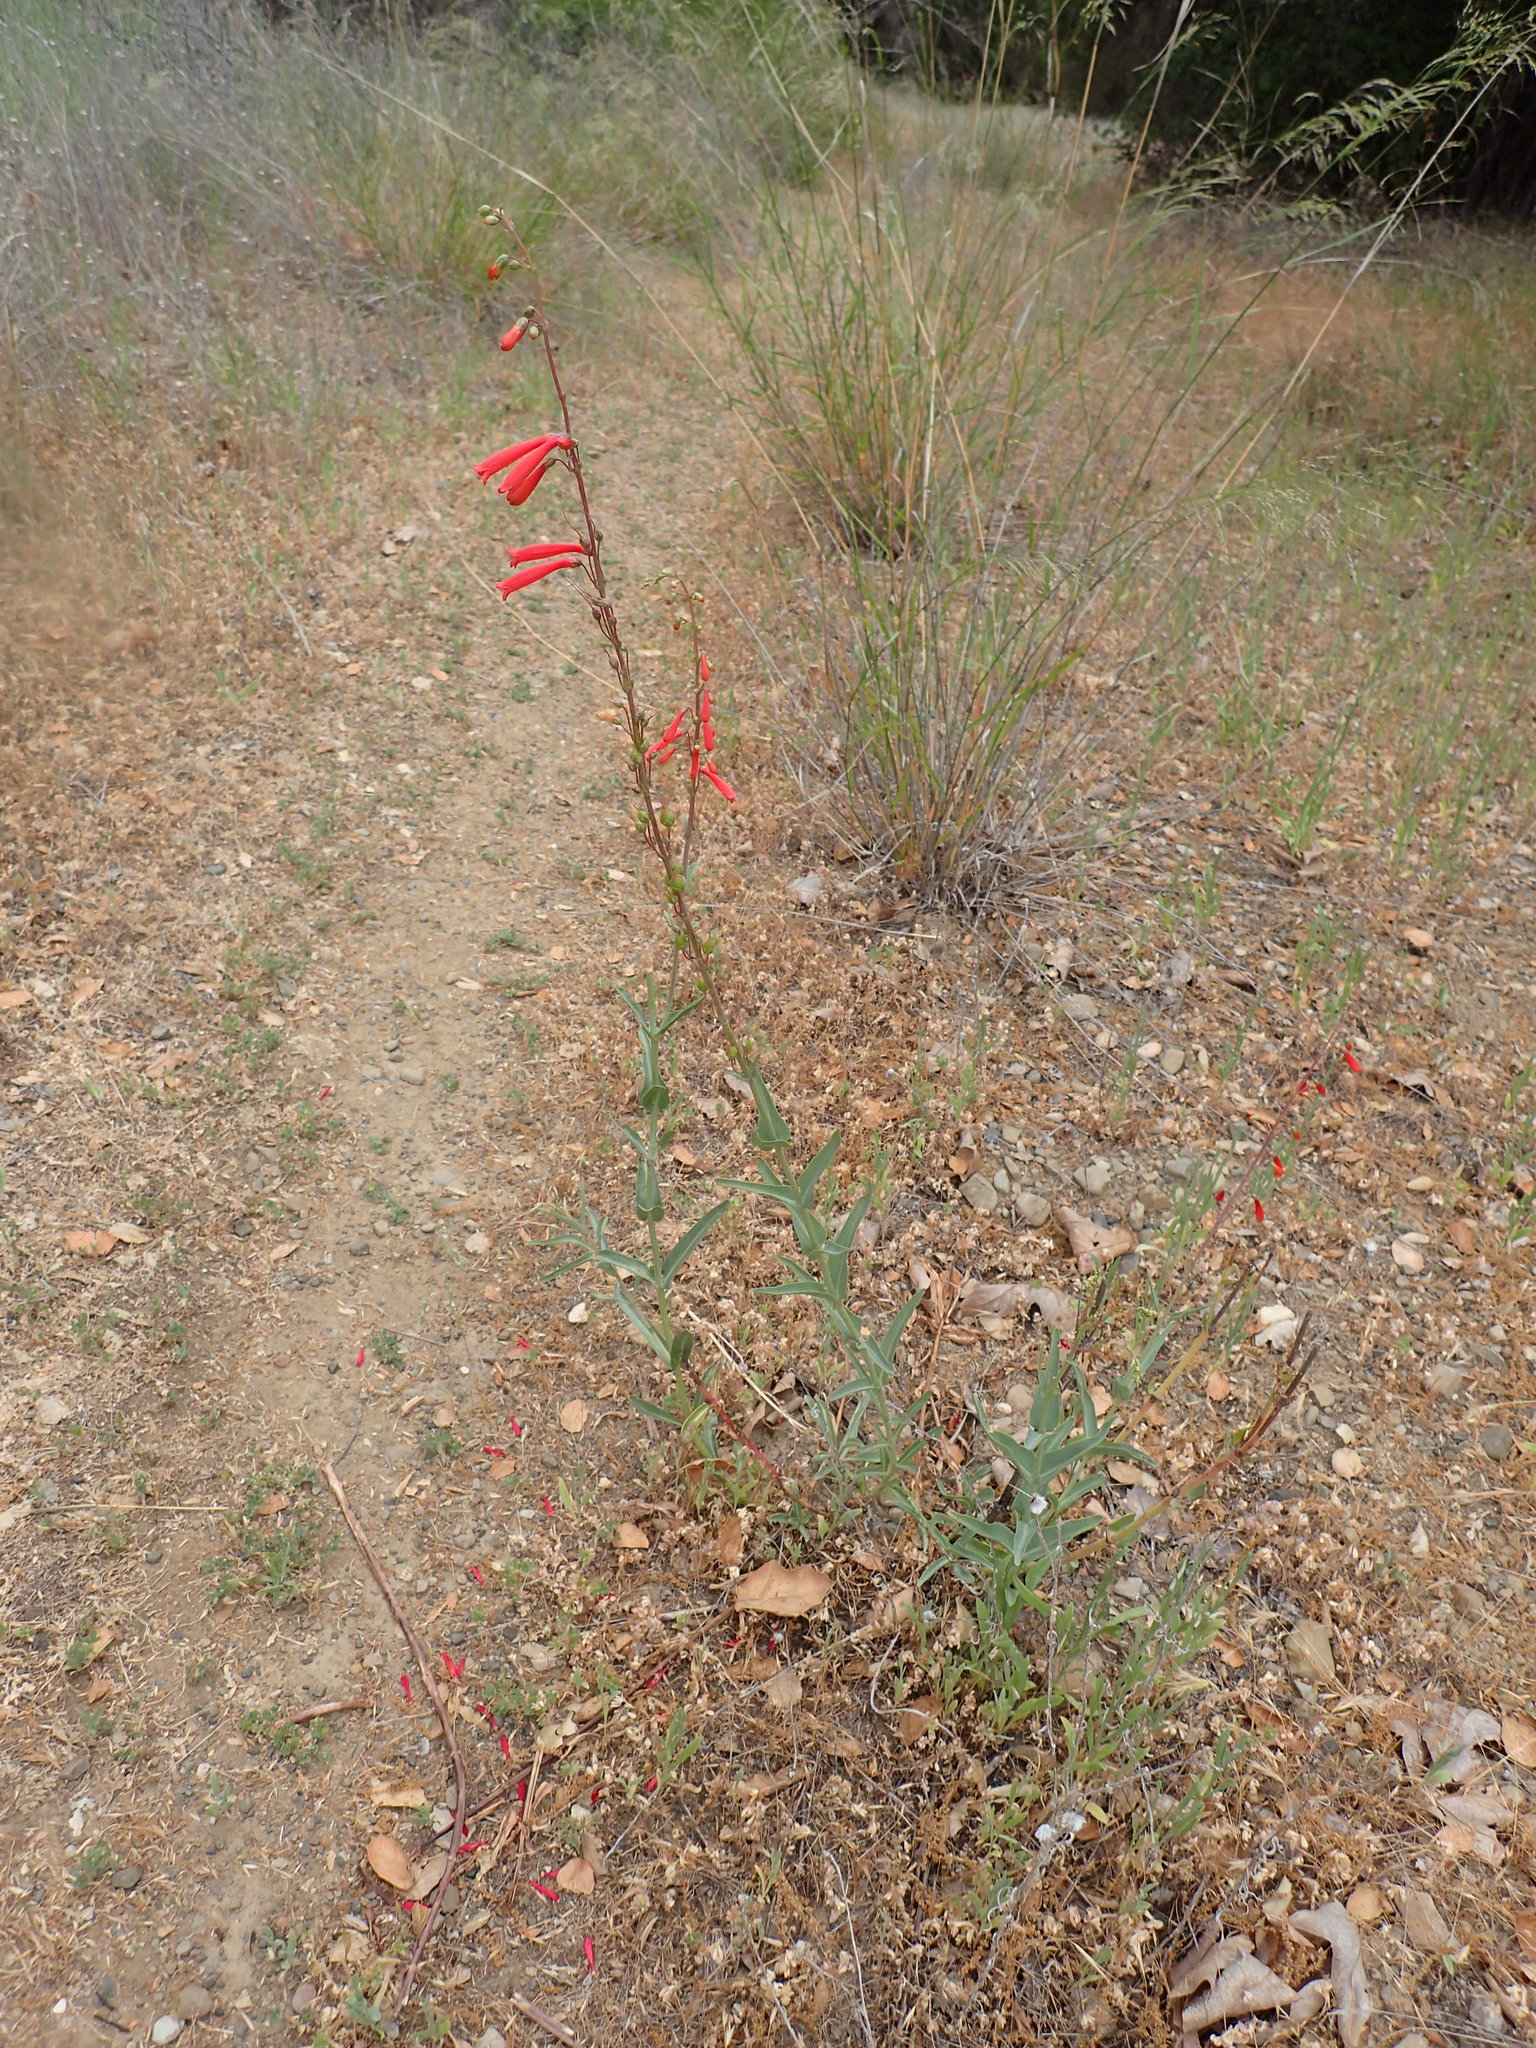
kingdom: Plantae
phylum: Tracheophyta
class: Magnoliopsida
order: Lamiales
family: Plantaginaceae
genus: Penstemon
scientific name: Penstemon centranthifolius
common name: Scarlet bugler
